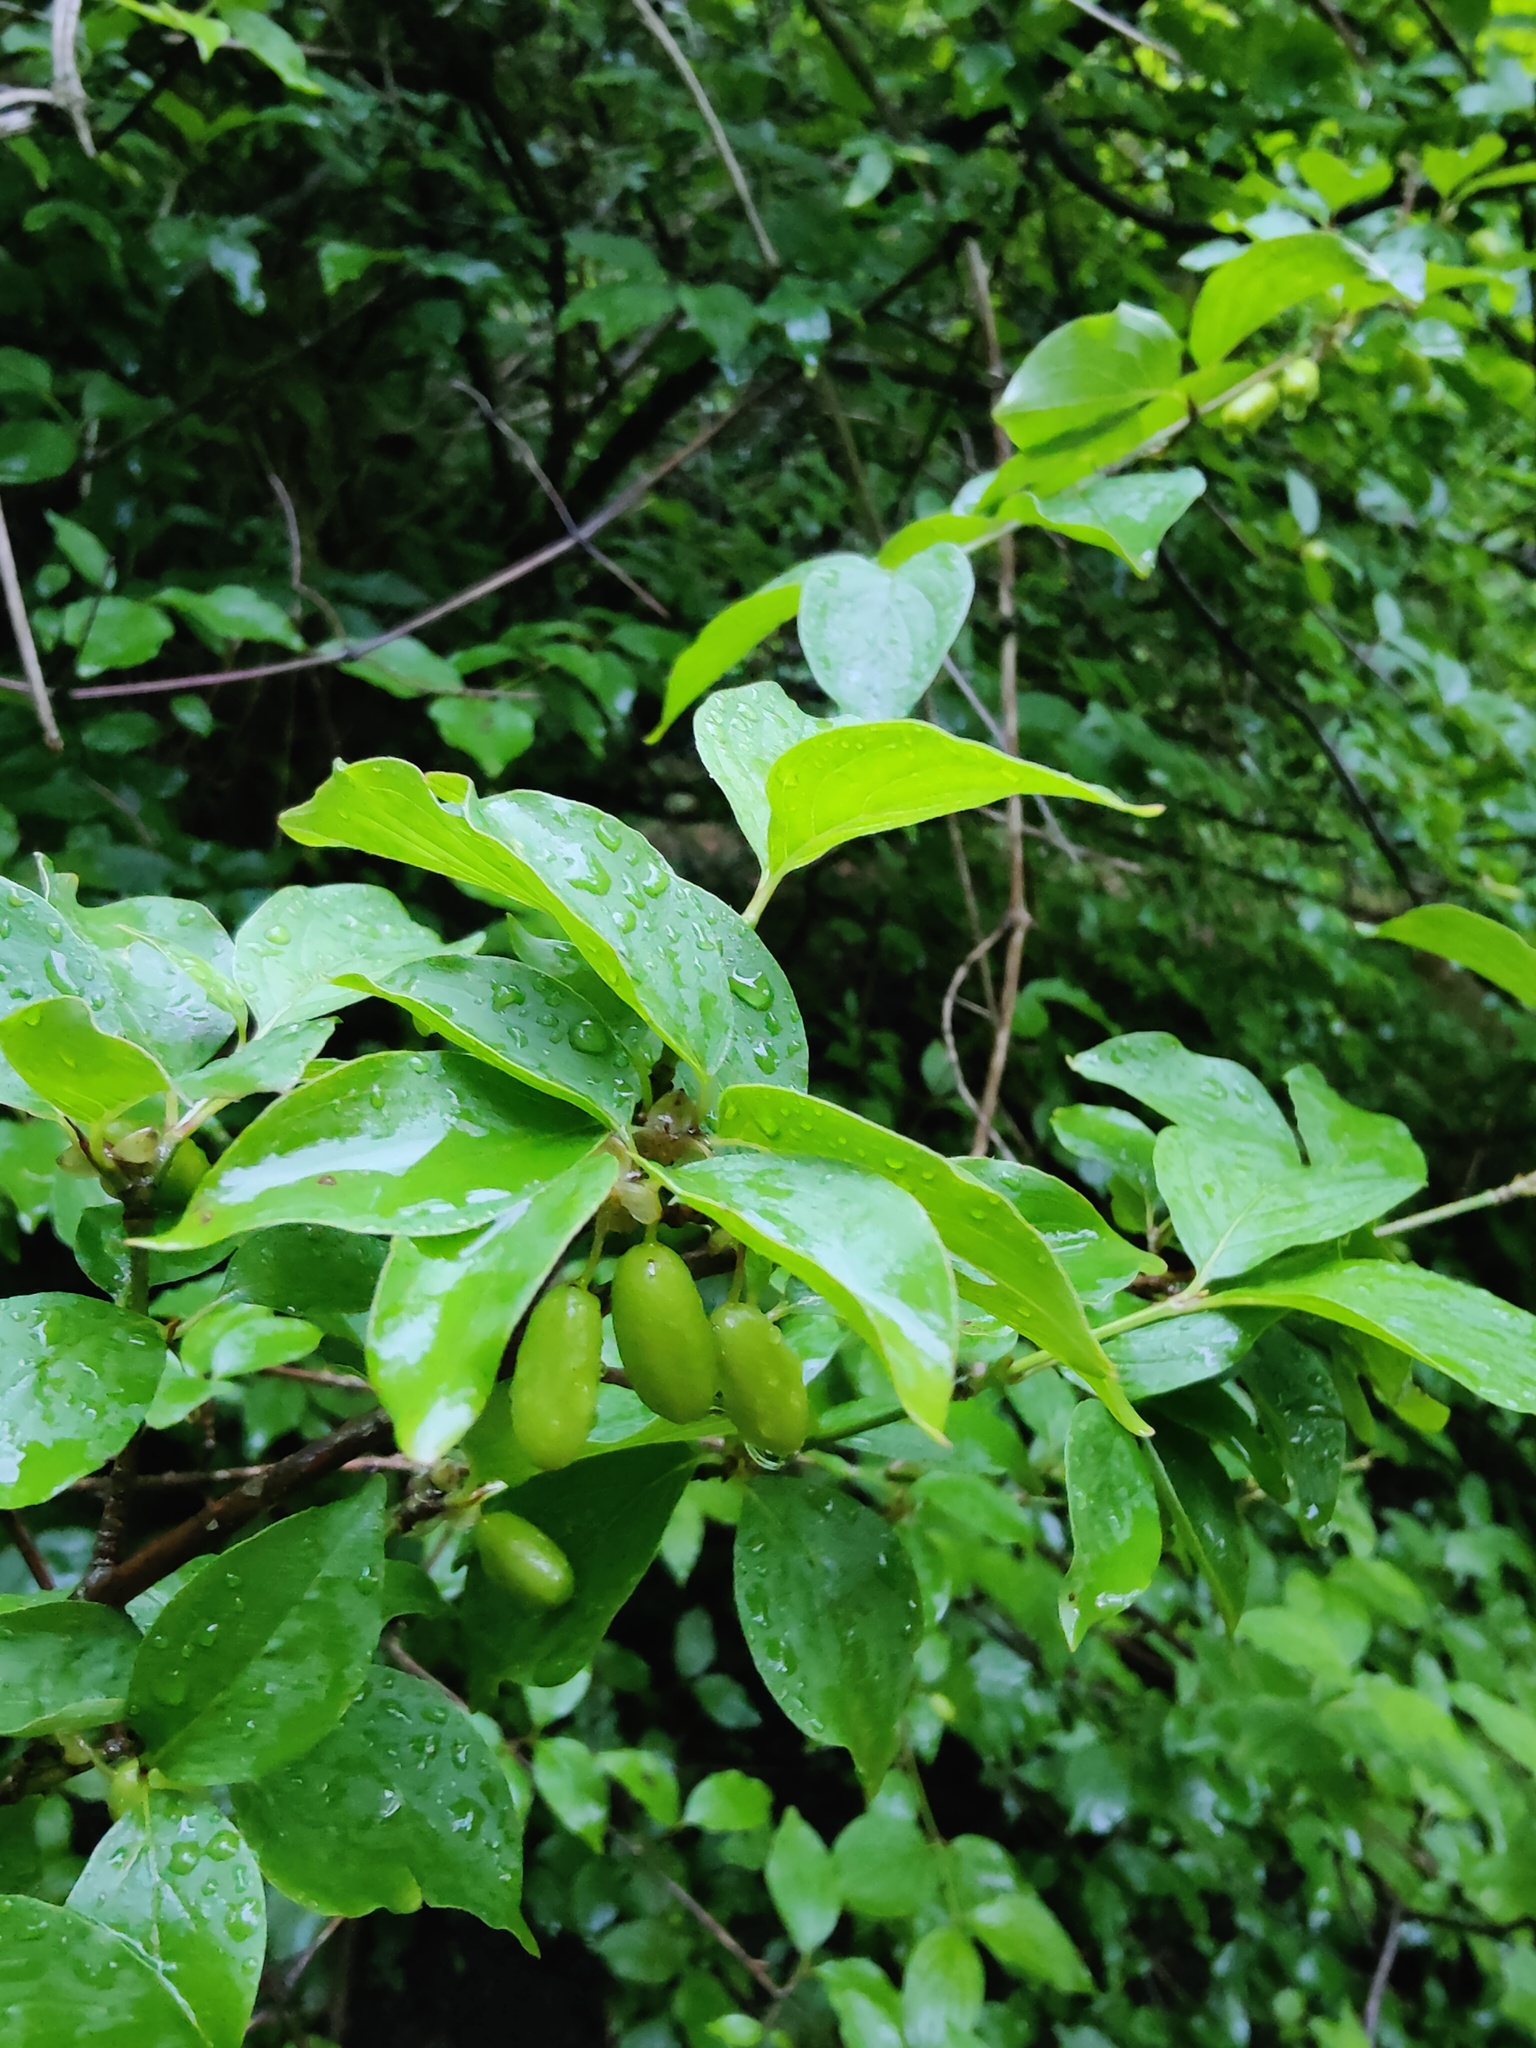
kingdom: Plantae
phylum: Tracheophyta
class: Magnoliopsida
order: Cornales
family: Cornaceae
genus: Cornus
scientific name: Cornus mas
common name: Cornelian-cherry
